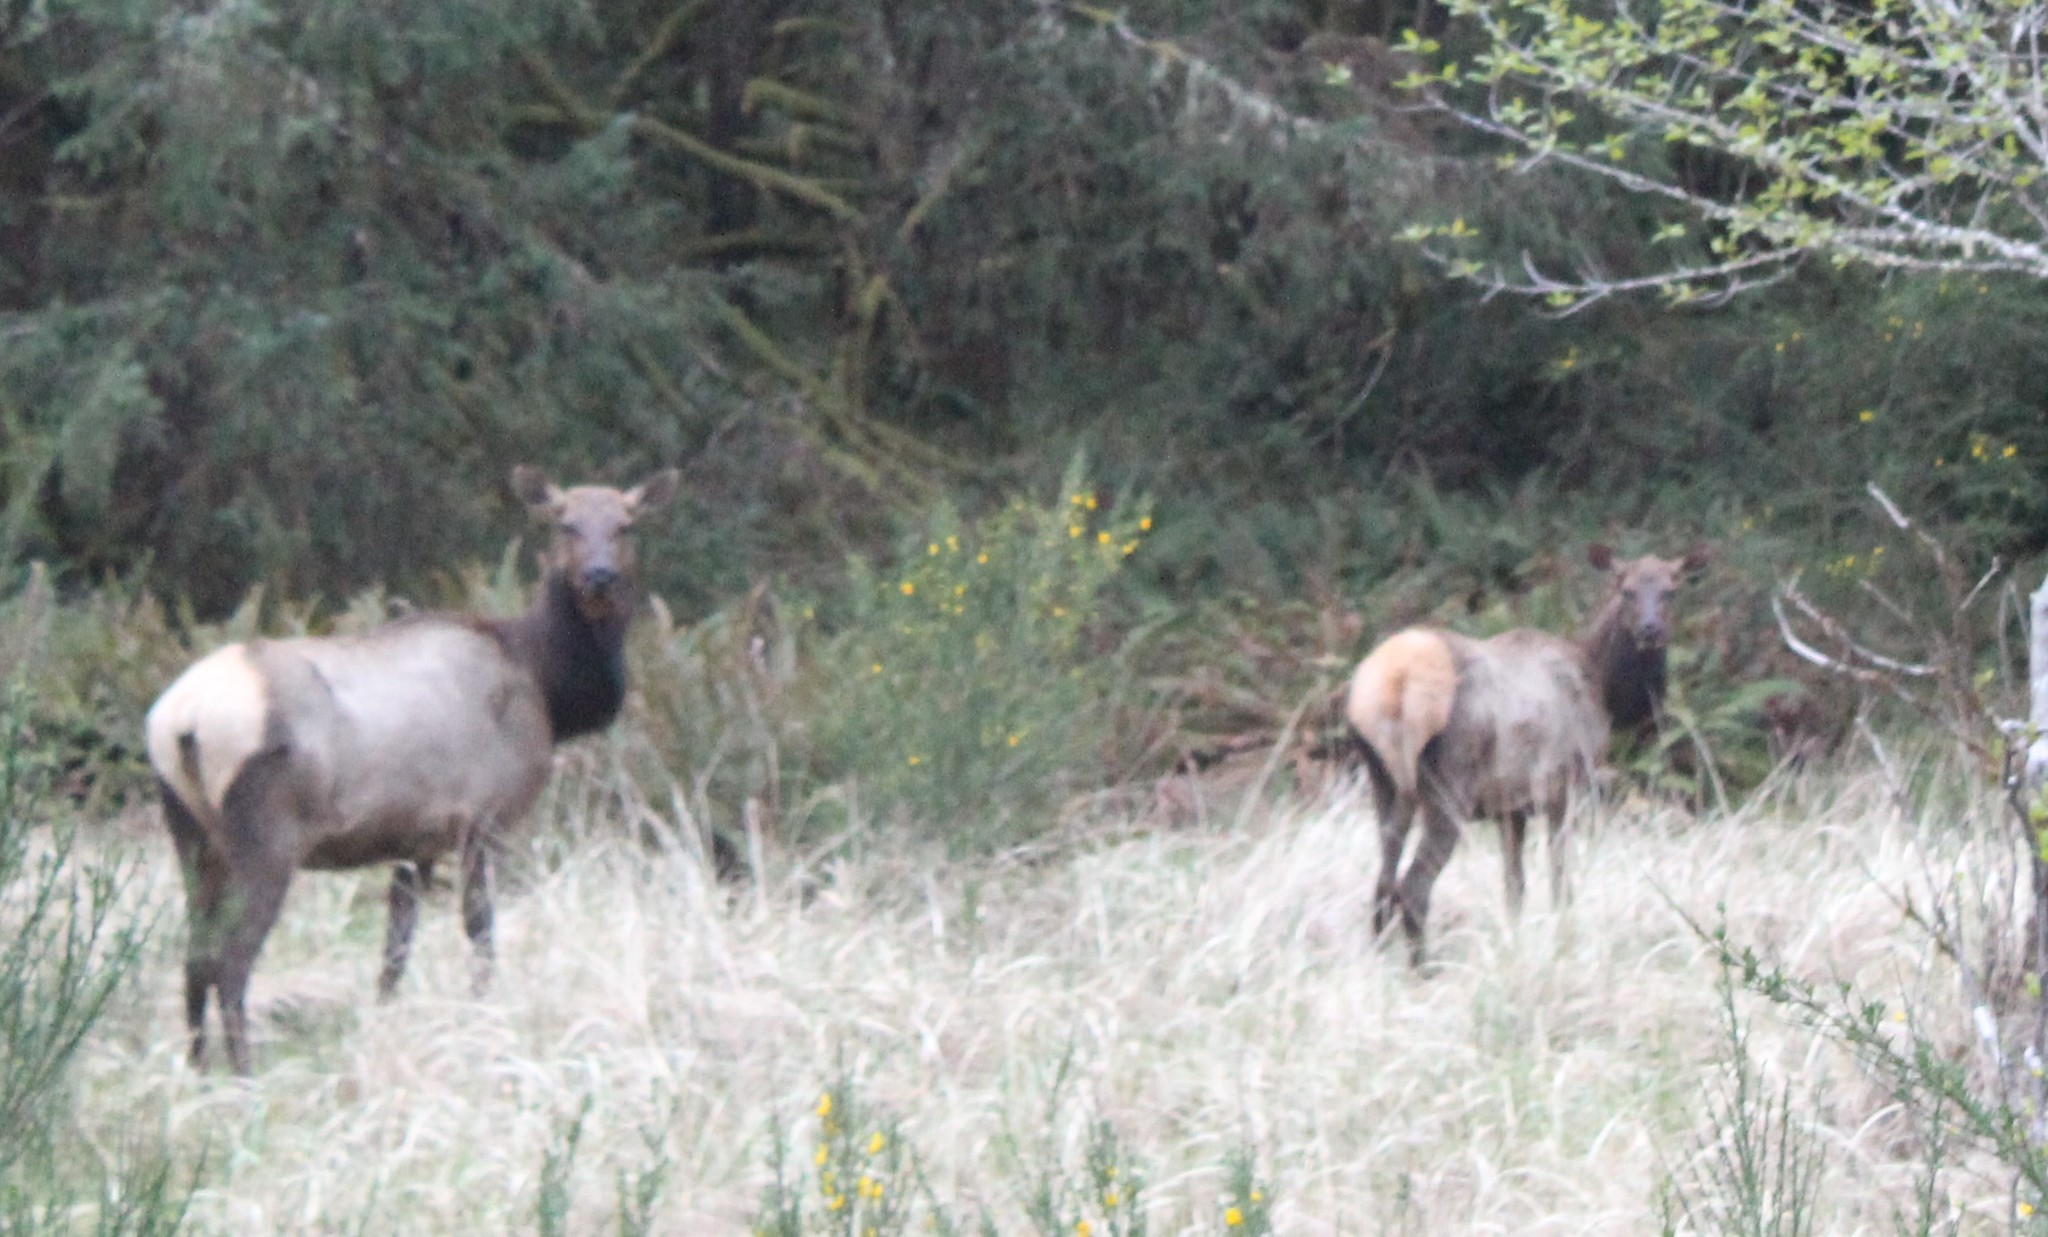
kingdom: Animalia
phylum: Chordata
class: Mammalia
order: Artiodactyla
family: Cervidae
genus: Cervus
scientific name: Cervus elaphus
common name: Red deer
